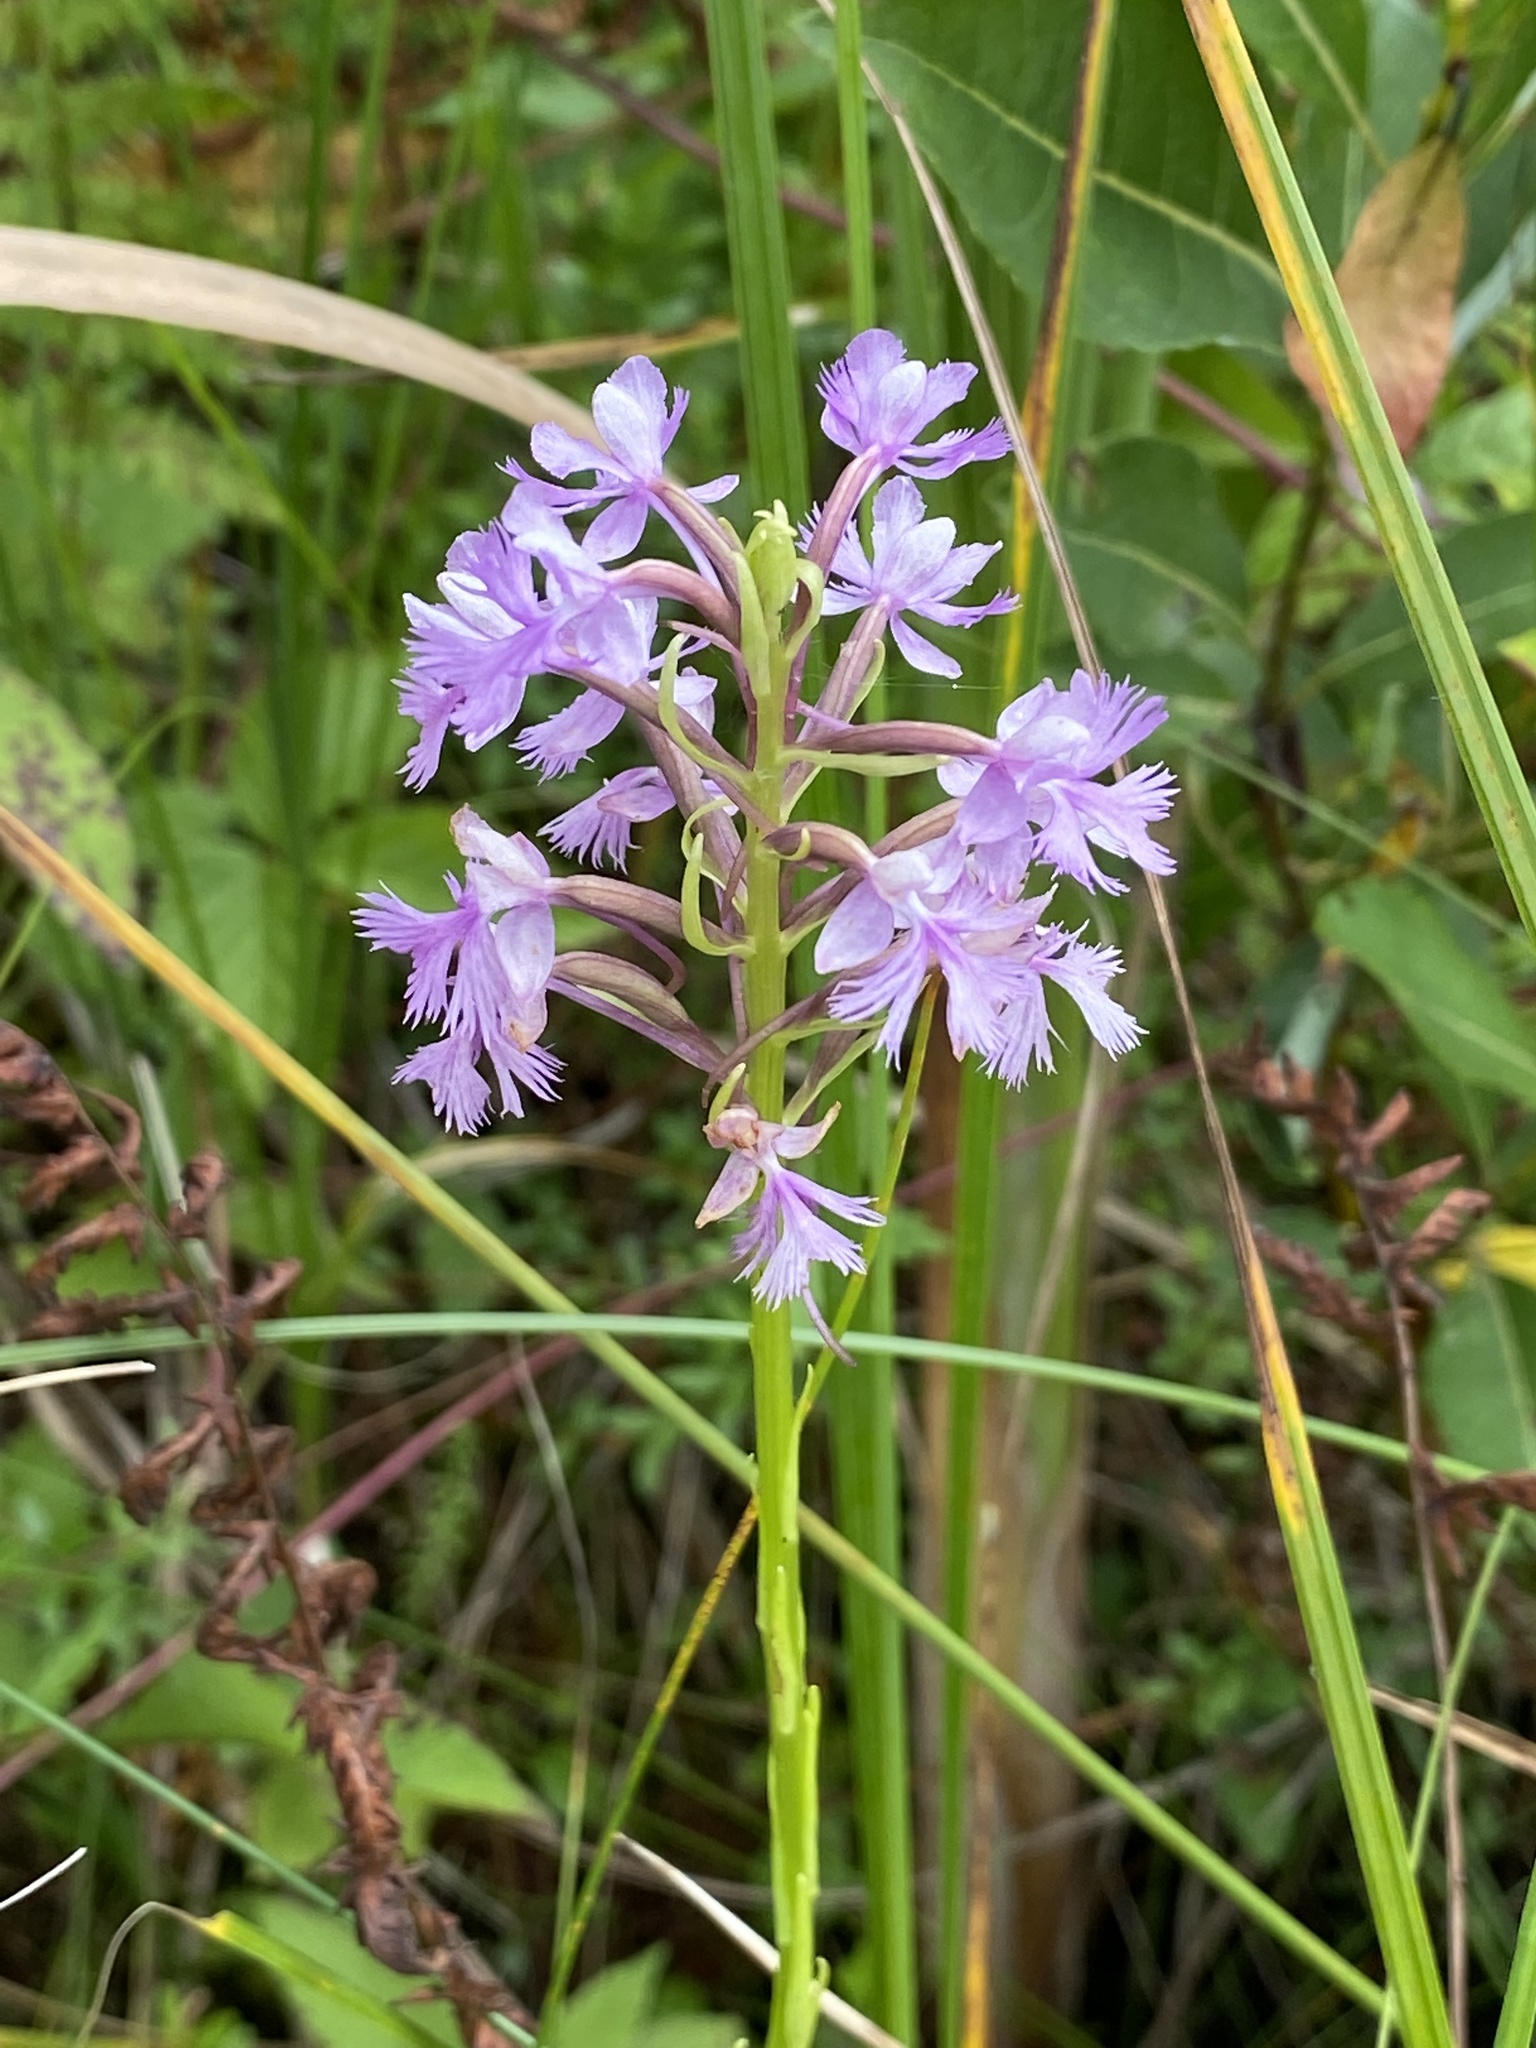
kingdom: Plantae
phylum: Tracheophyta
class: Liliopsida
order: Asparagales
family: Orchidaceae
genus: Platanthera
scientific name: Platanthera psycodes
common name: Lesser purple fringed orchid
